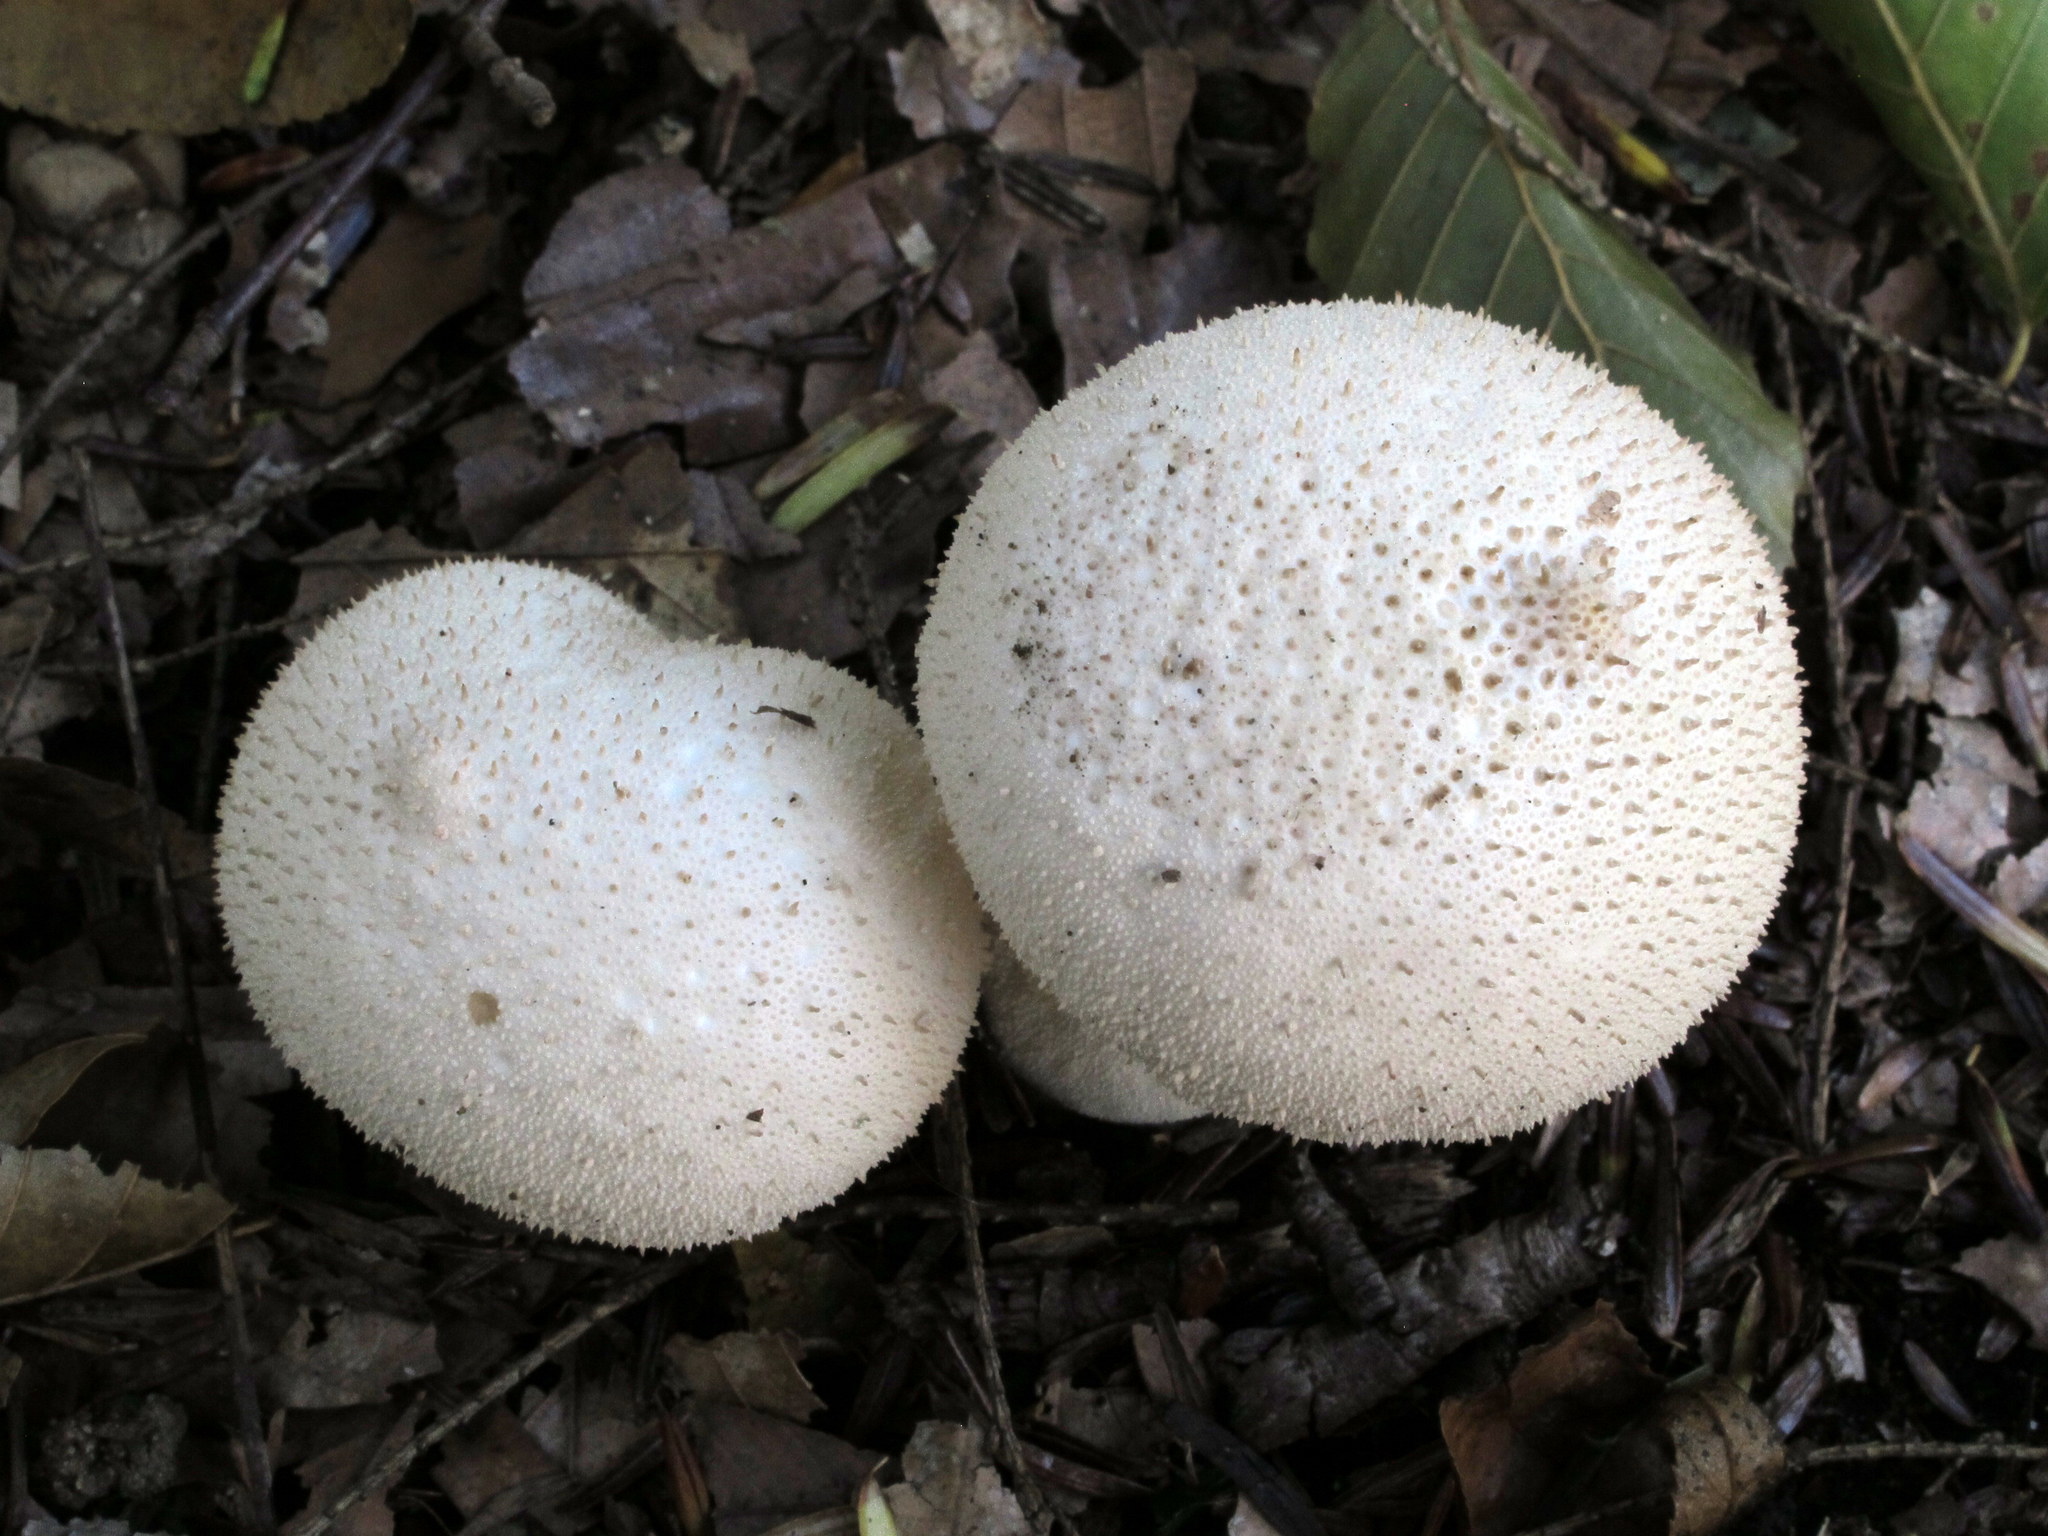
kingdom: Fungi
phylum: Basidiomycota
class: Agaricomycetes
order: Agaricales
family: Lycoperdaceae
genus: Lycoperdon
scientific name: Lycoperdon perlatum
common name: Common puffball
